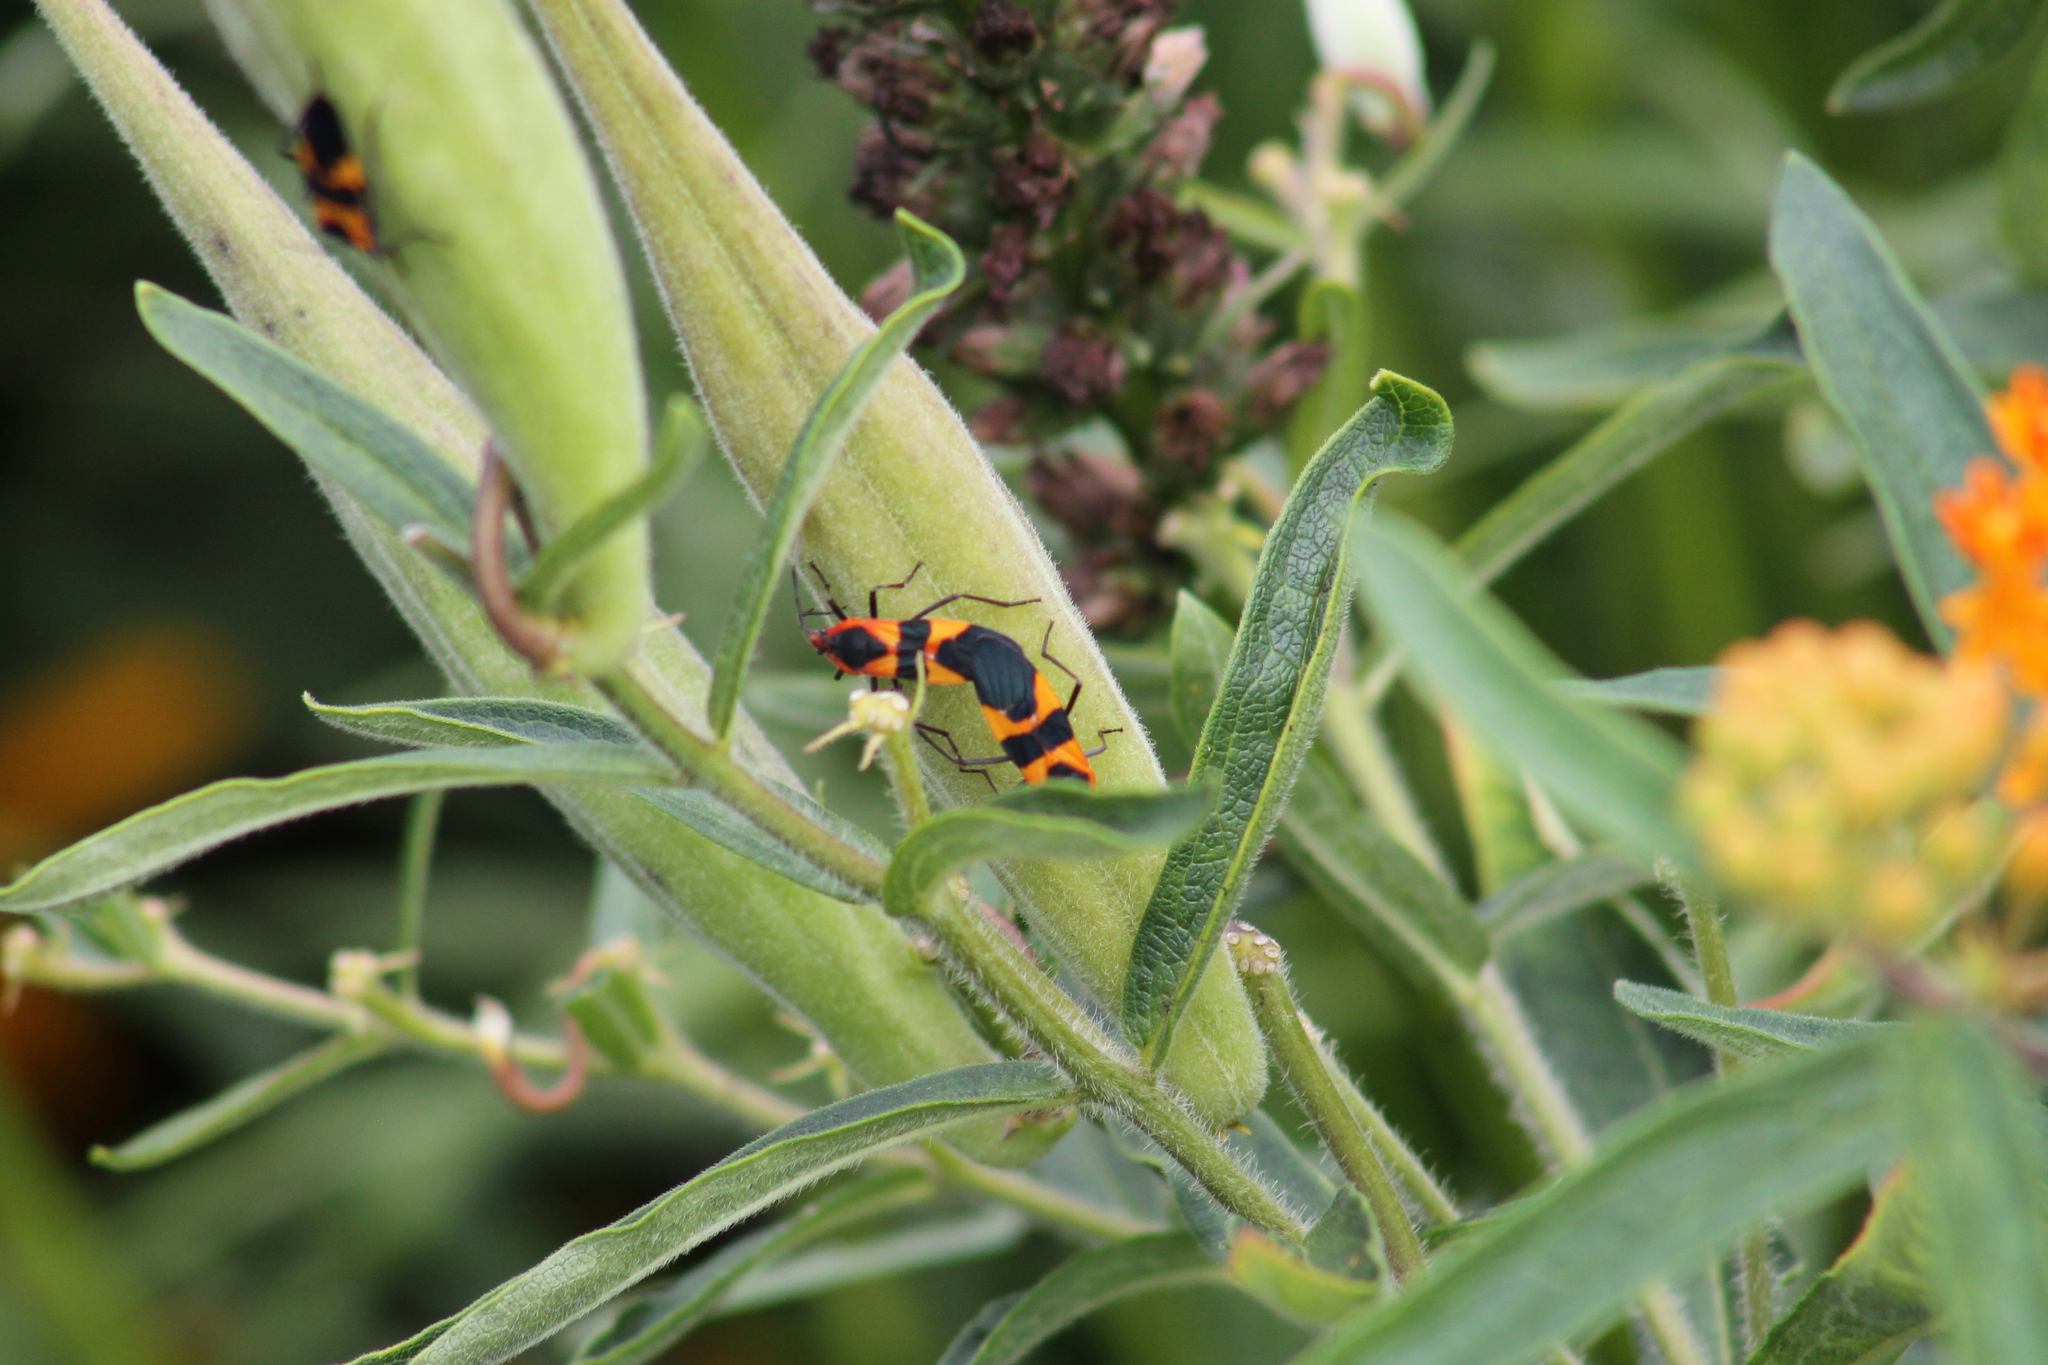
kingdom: Animalia
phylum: Arthropoda
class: Insecta
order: Hemiptera
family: Lygaeidae
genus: Oncopeltus
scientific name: Oncopeltus fasciatus
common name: Large milkweed bug
